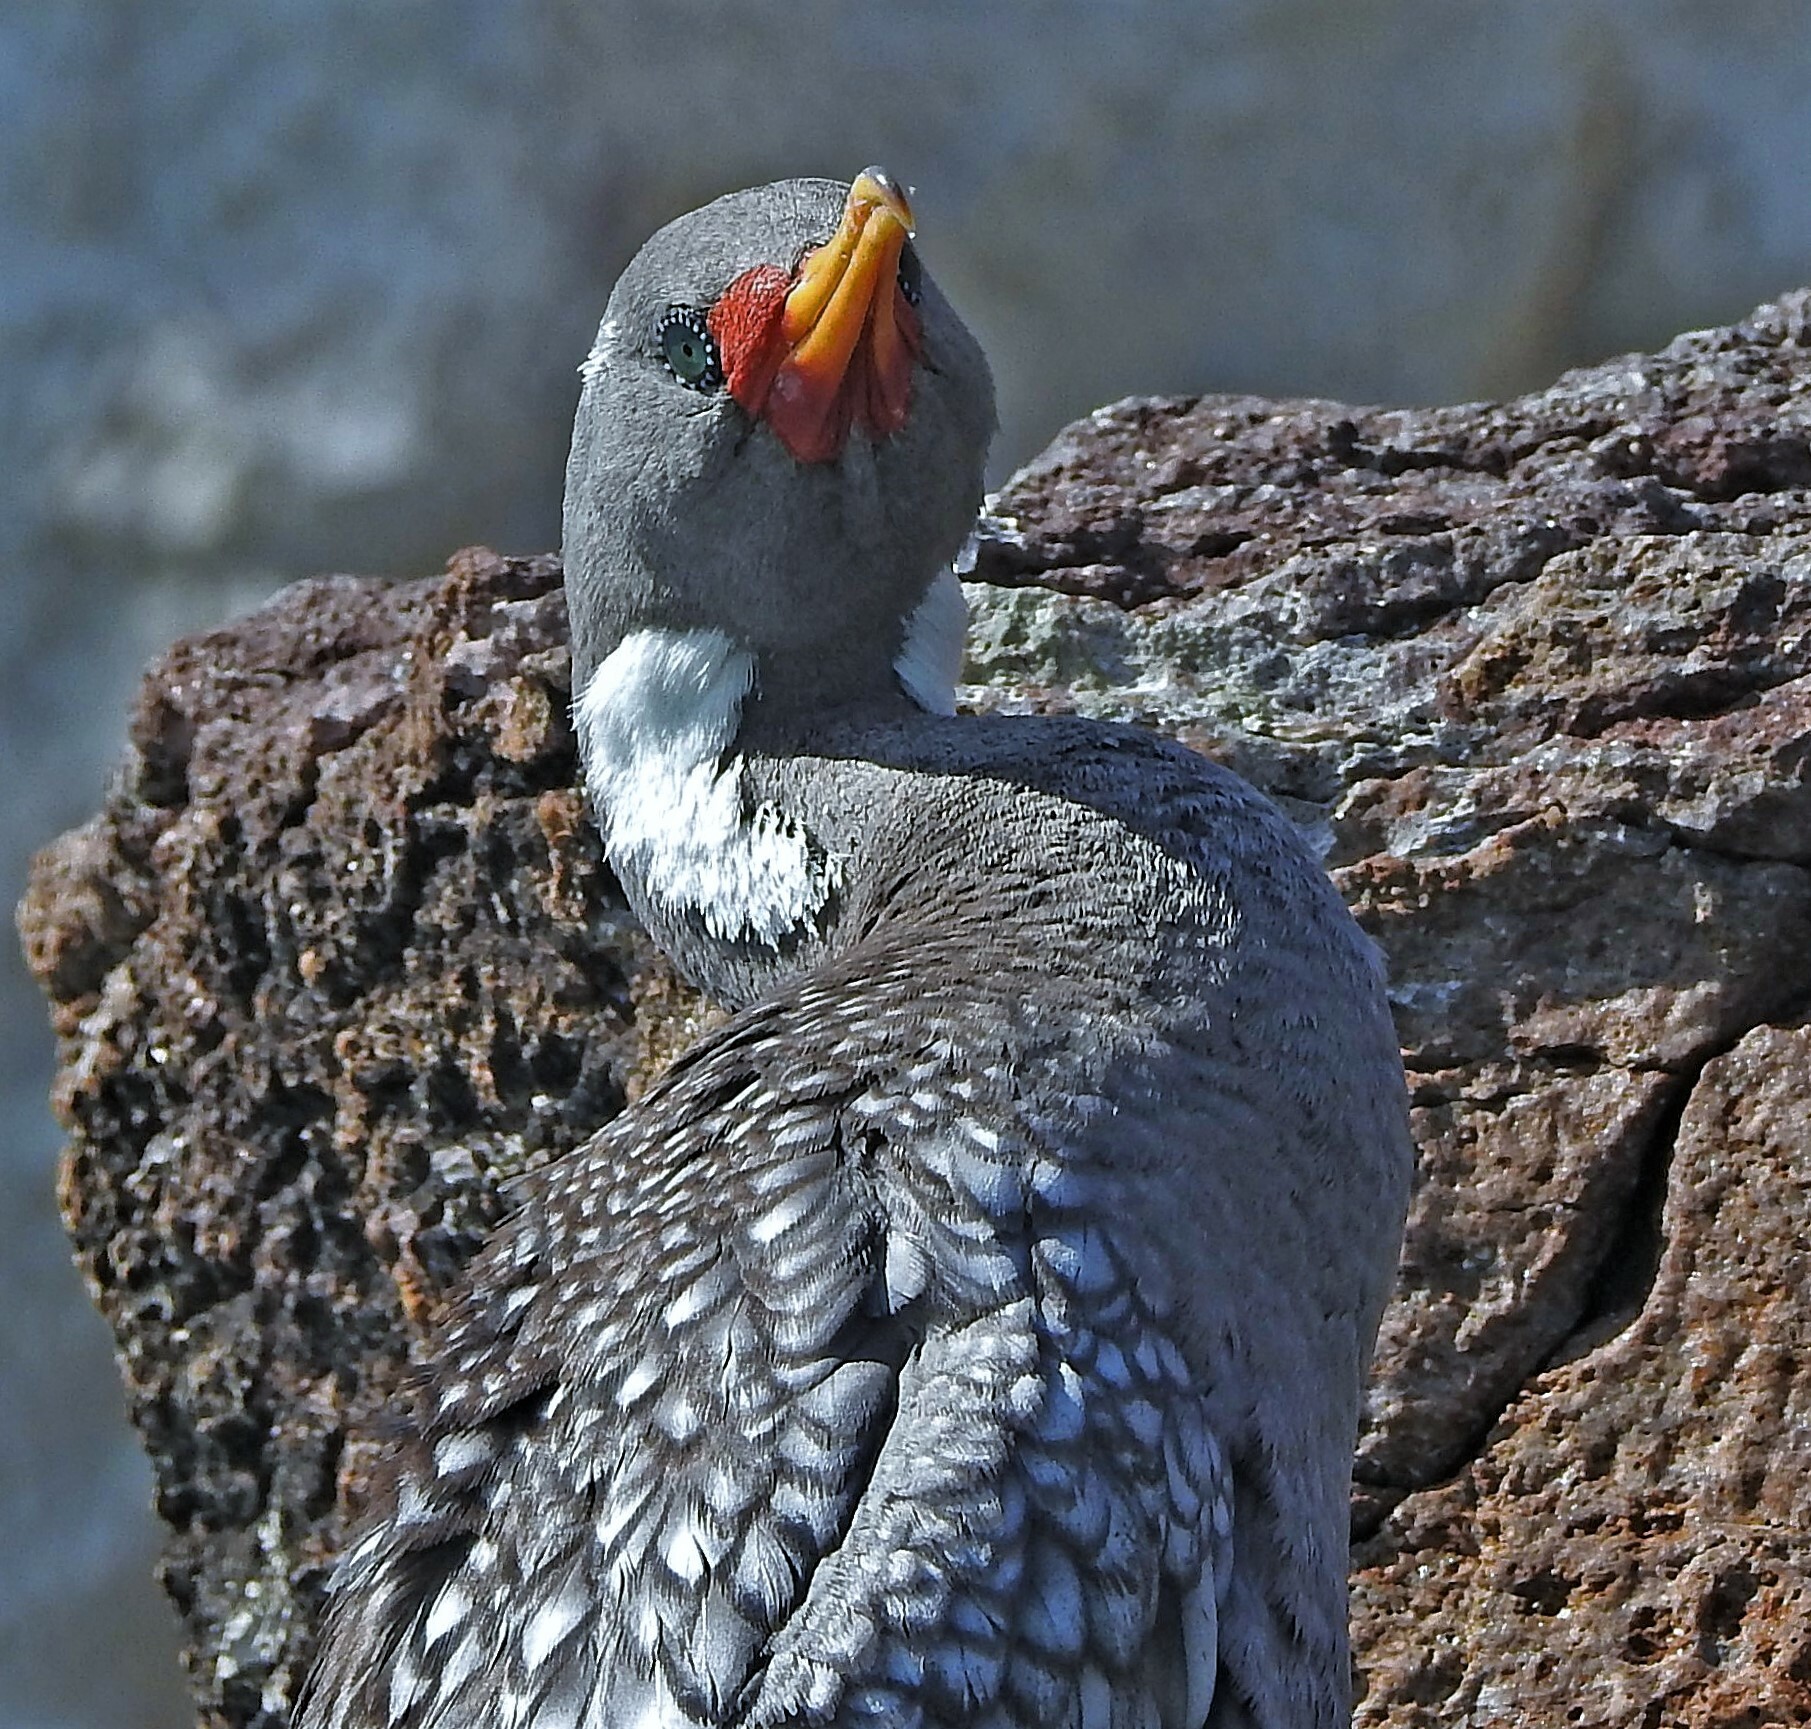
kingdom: Animalia
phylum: Chordata
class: Aves
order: Suliformes
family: Phalacrocoracidae
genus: Phalacrocorax
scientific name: Phalacrocorax gaimardi
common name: Red-legged cormorant
